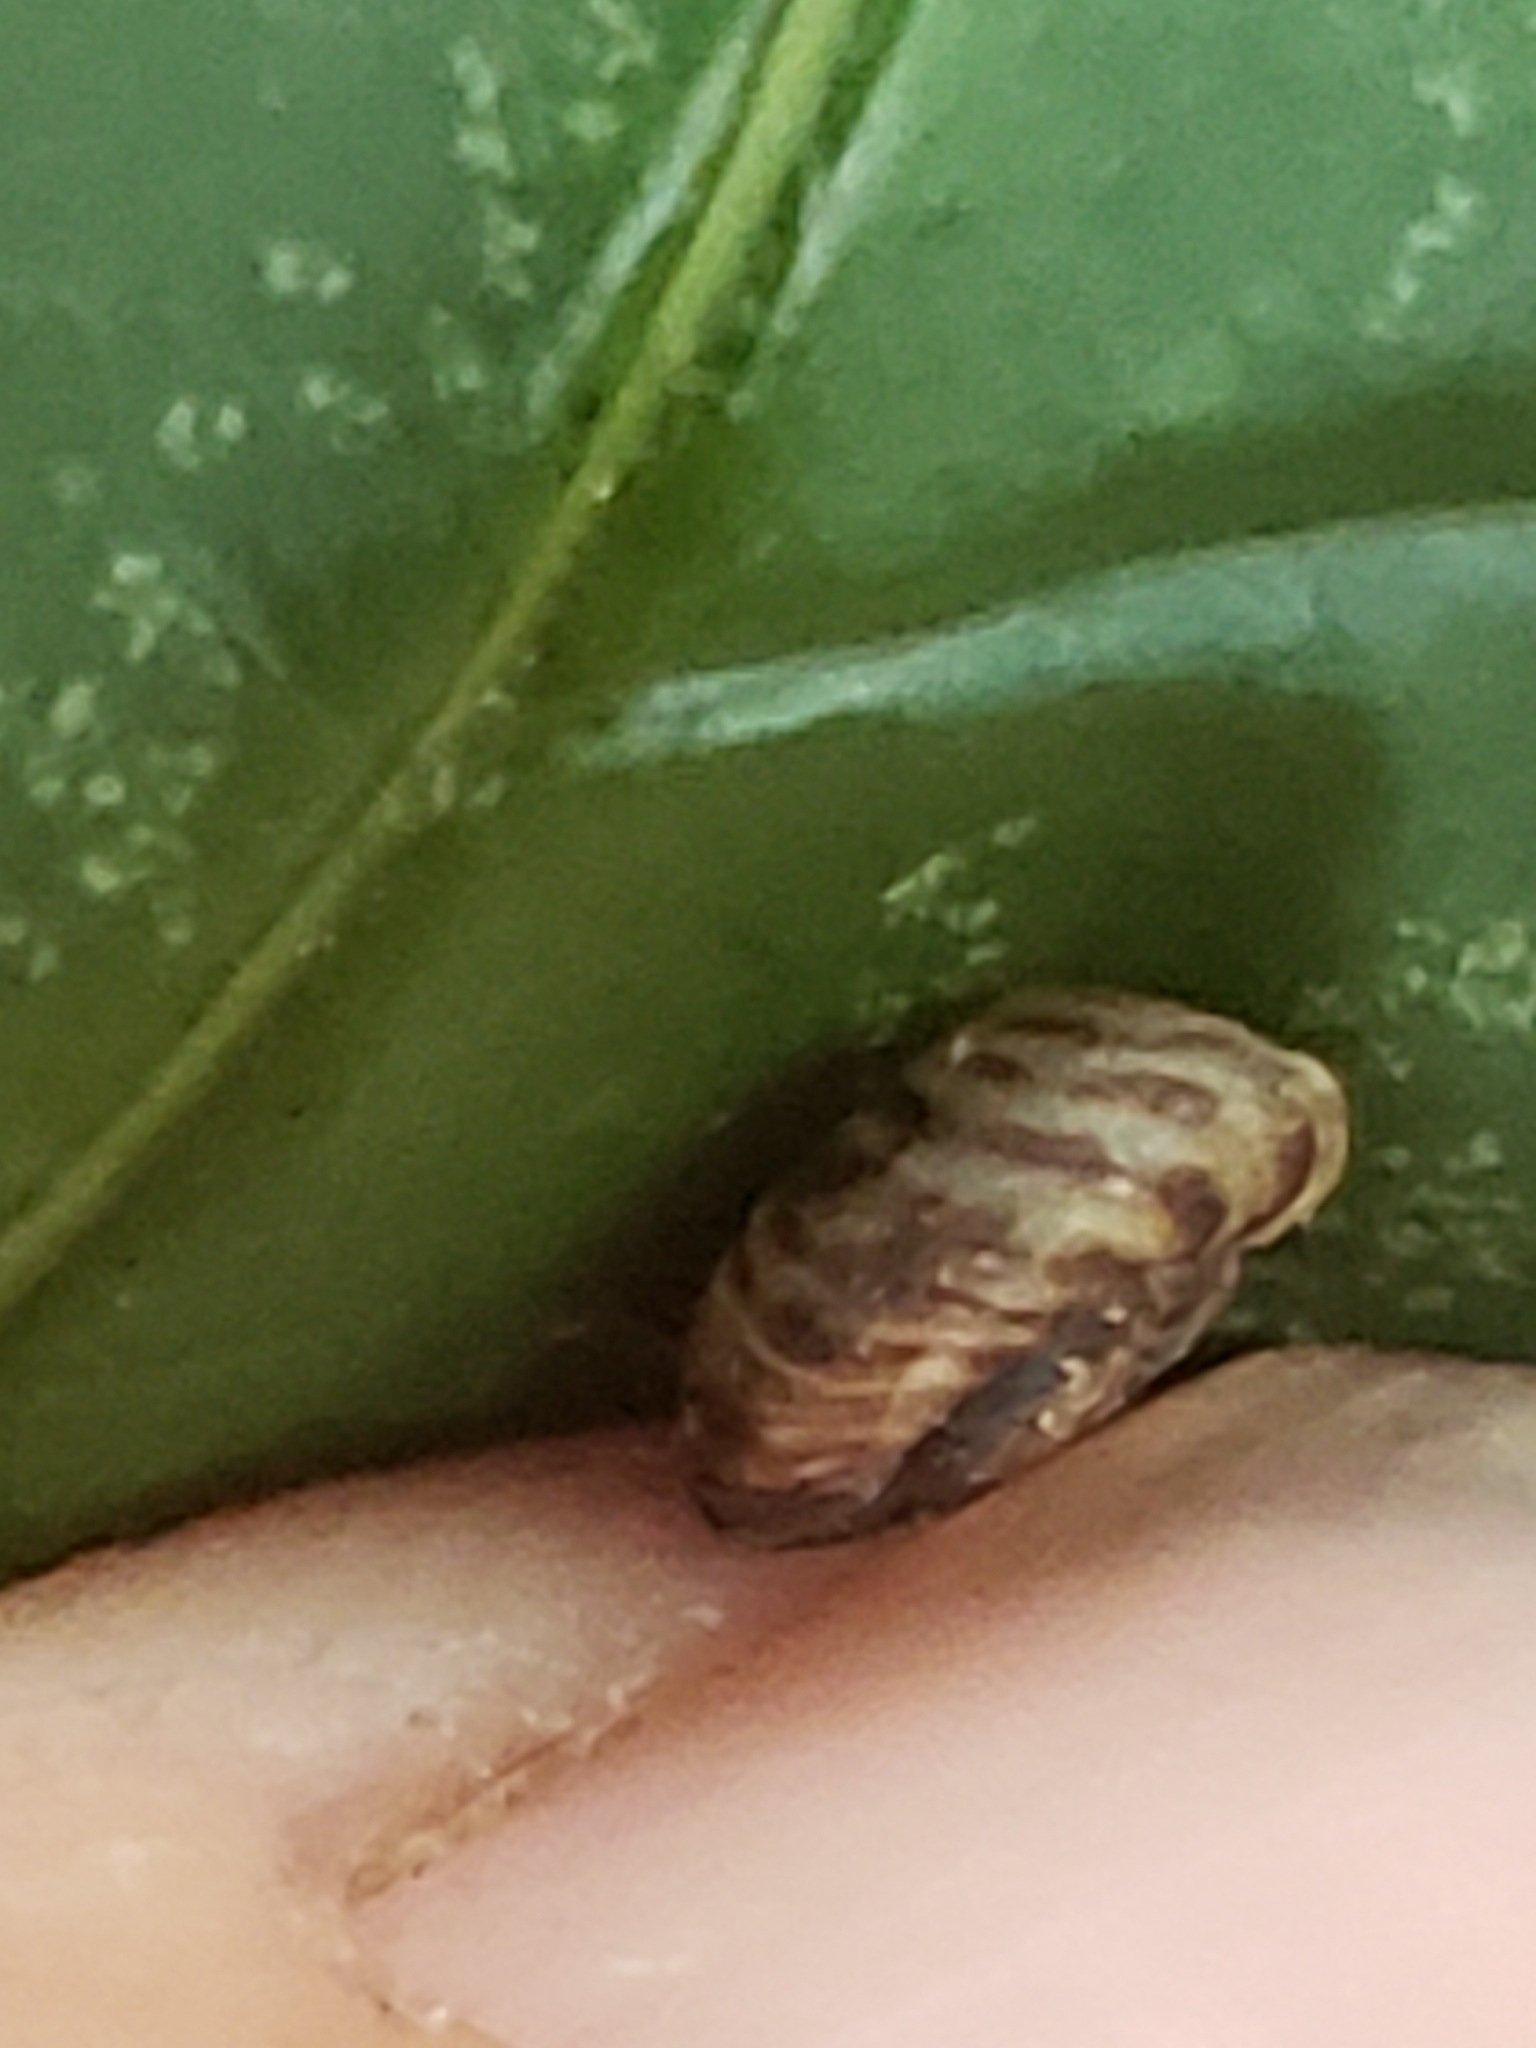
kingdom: Animalia
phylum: Mollusca
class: Gastropoda
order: Stylommatophora
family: Discidae
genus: Anguispira
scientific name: Anguispira alternata
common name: Flamed tigersnail
